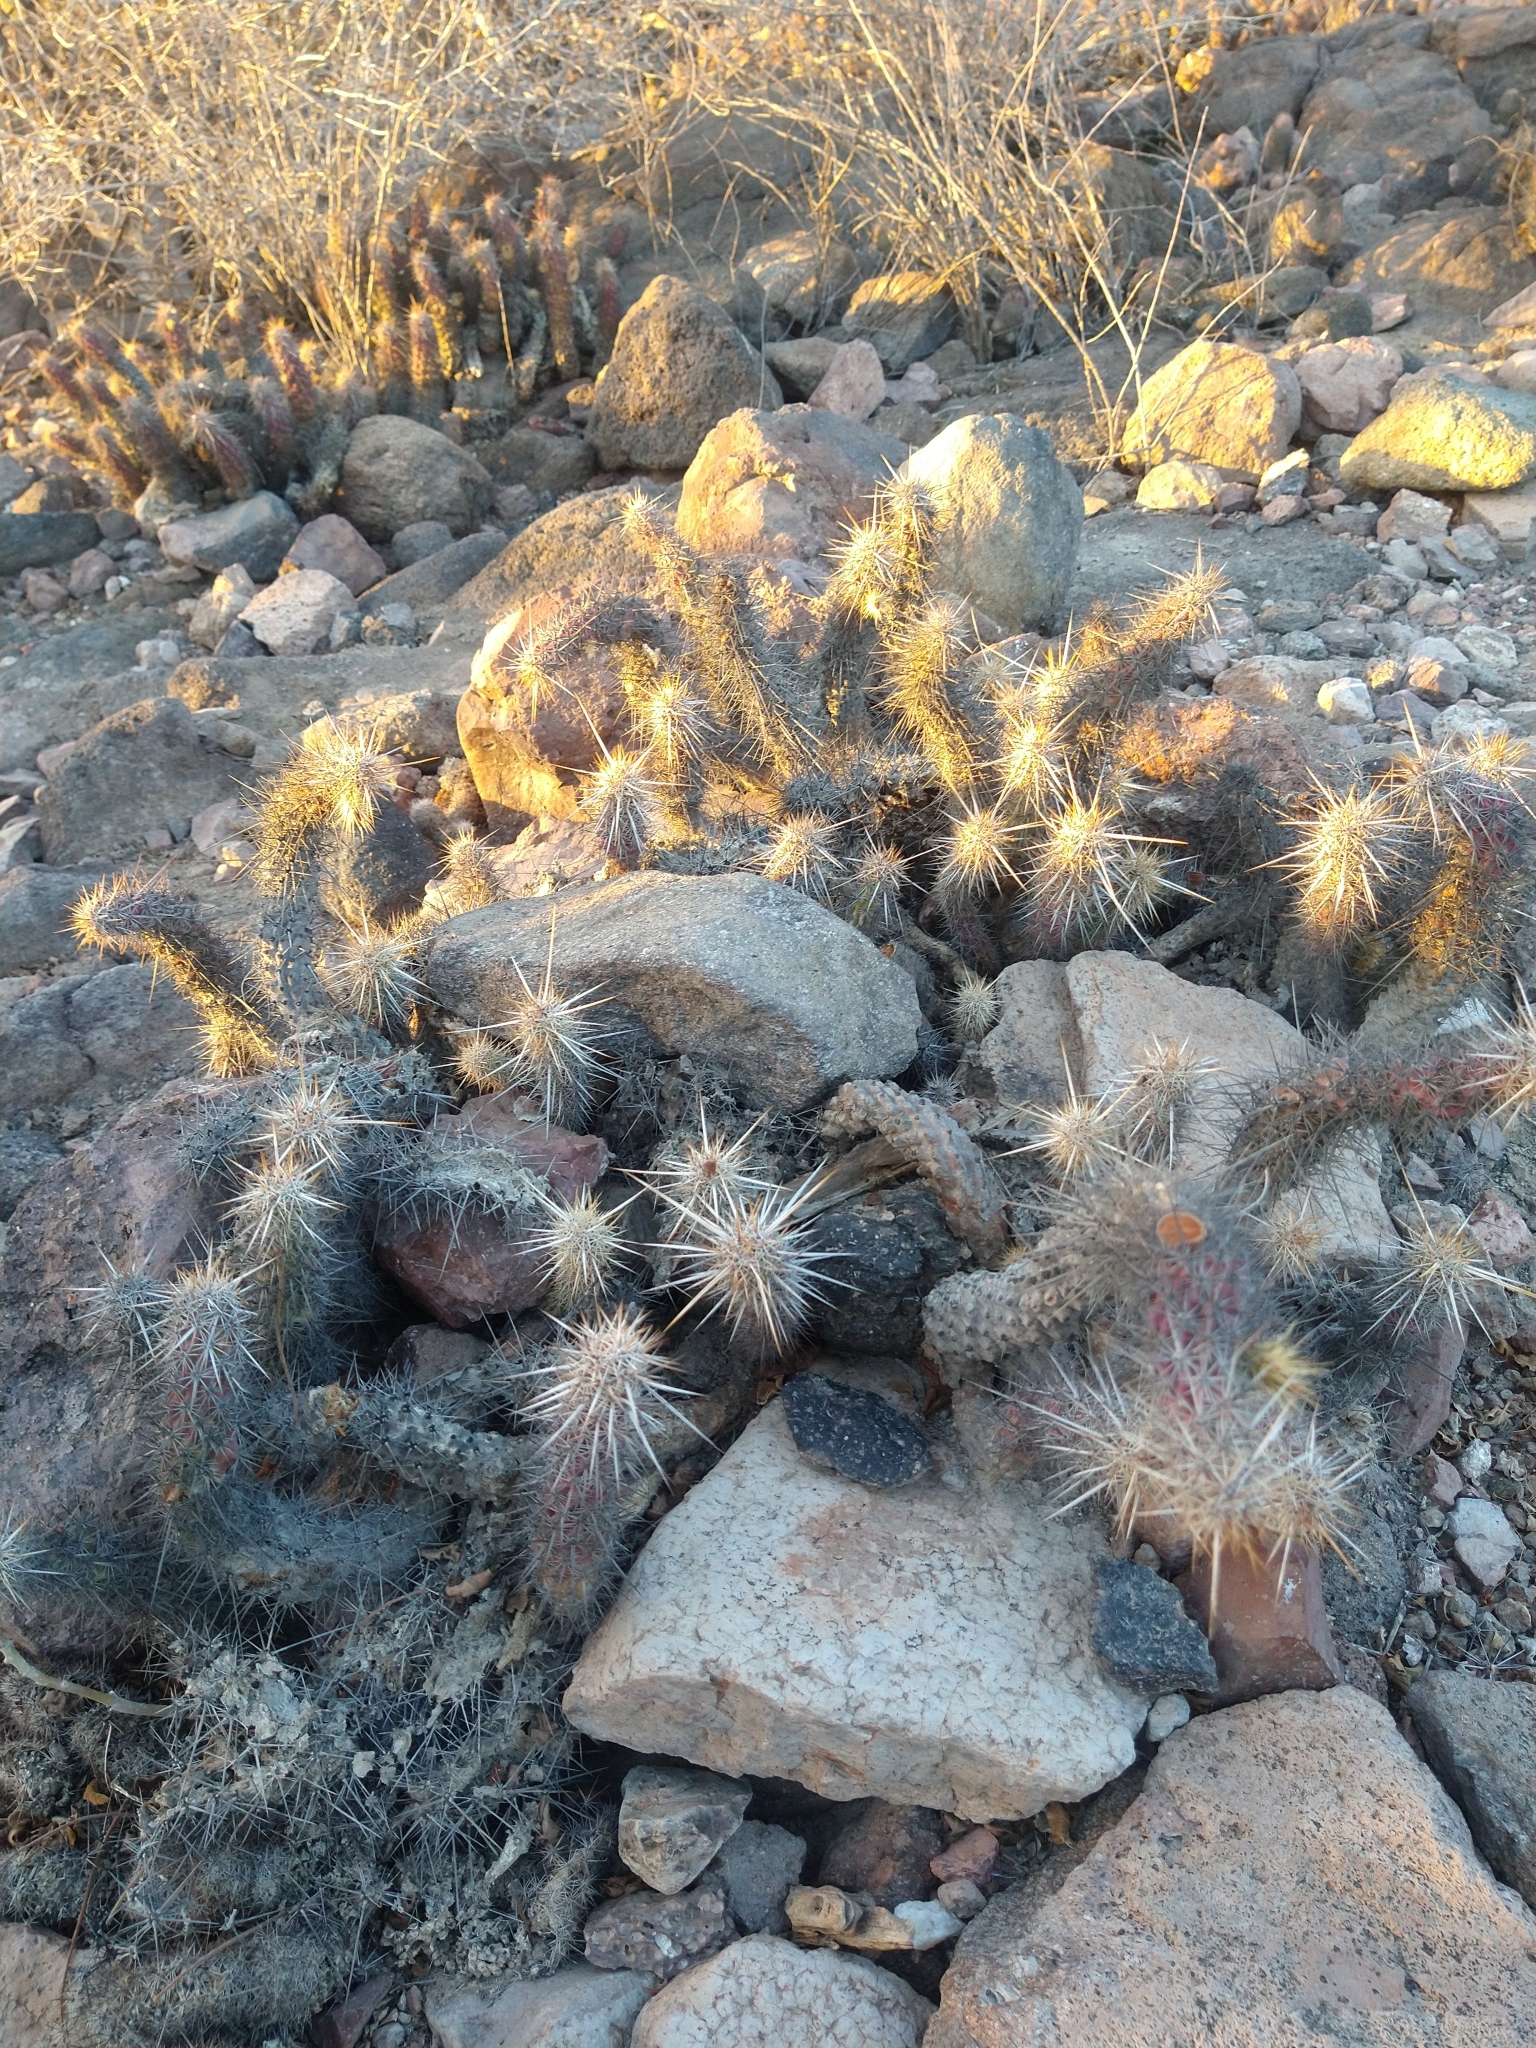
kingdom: Plantae
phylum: Tracheophyta
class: Magnoliopsida
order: Caryophyllales
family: Cactaceae
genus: Echinocereus
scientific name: Echinocereus brandegeei
